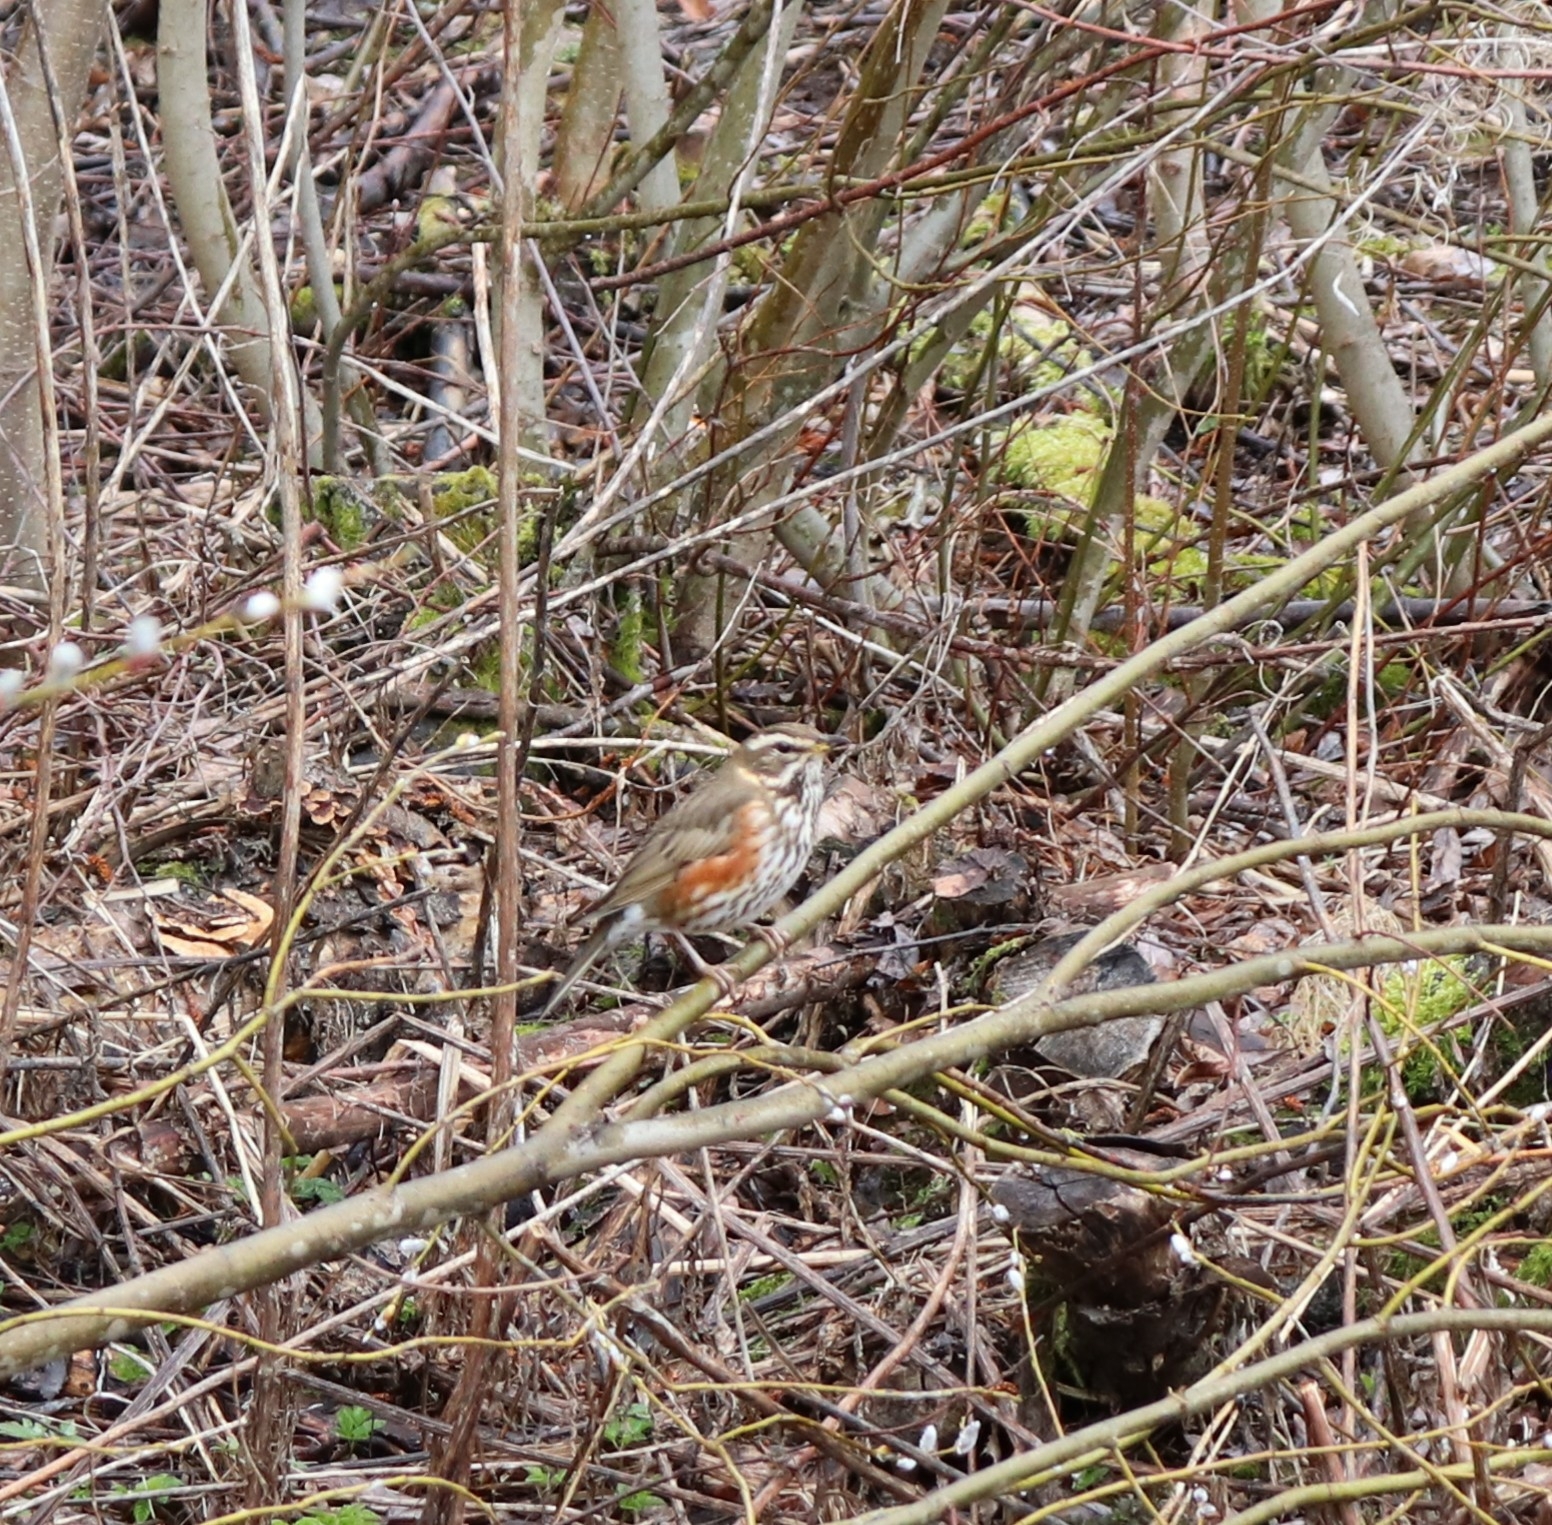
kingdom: Animalia
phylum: Chordata
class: Aves
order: Passeriformes
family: Turdidae
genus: Turdus
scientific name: Turdus iliacus
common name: Redwing
